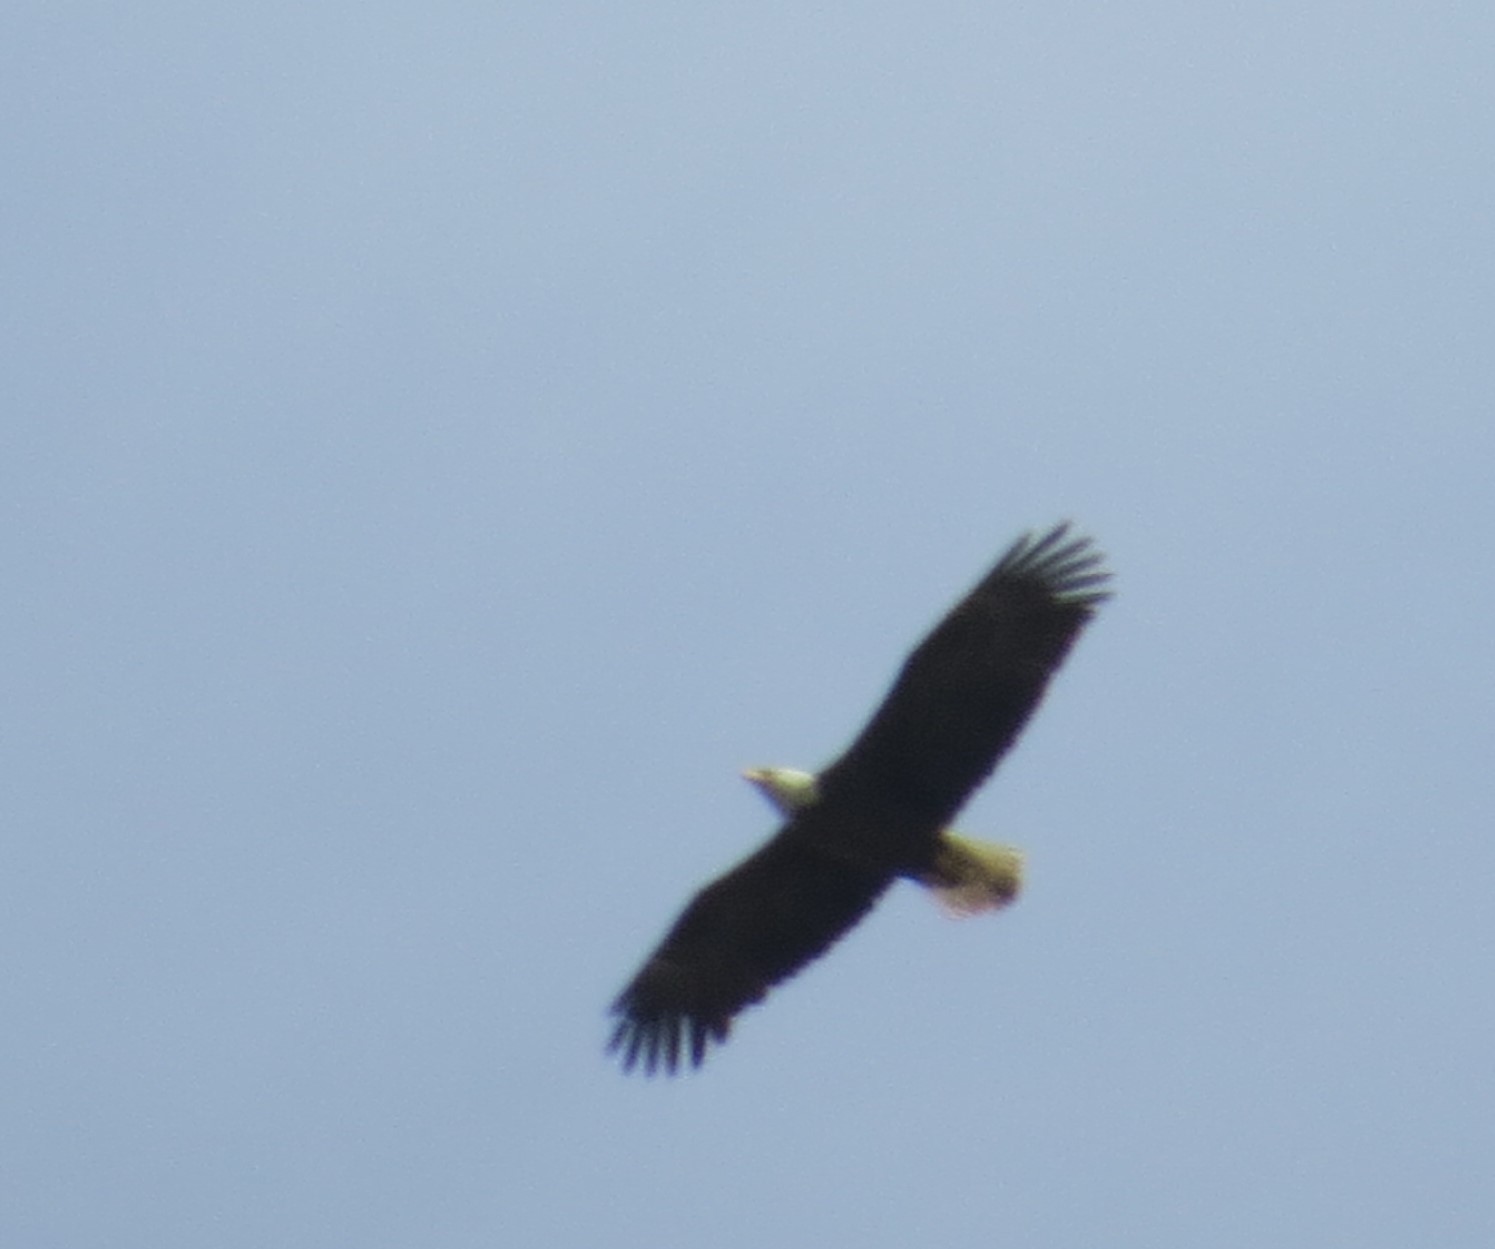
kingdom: Animalia
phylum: Chordata
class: Aves
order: Accipitriformes
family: Accipitridae
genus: Haliaeetus
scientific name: Haliaeetus leucocephalus
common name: Bald eagle
